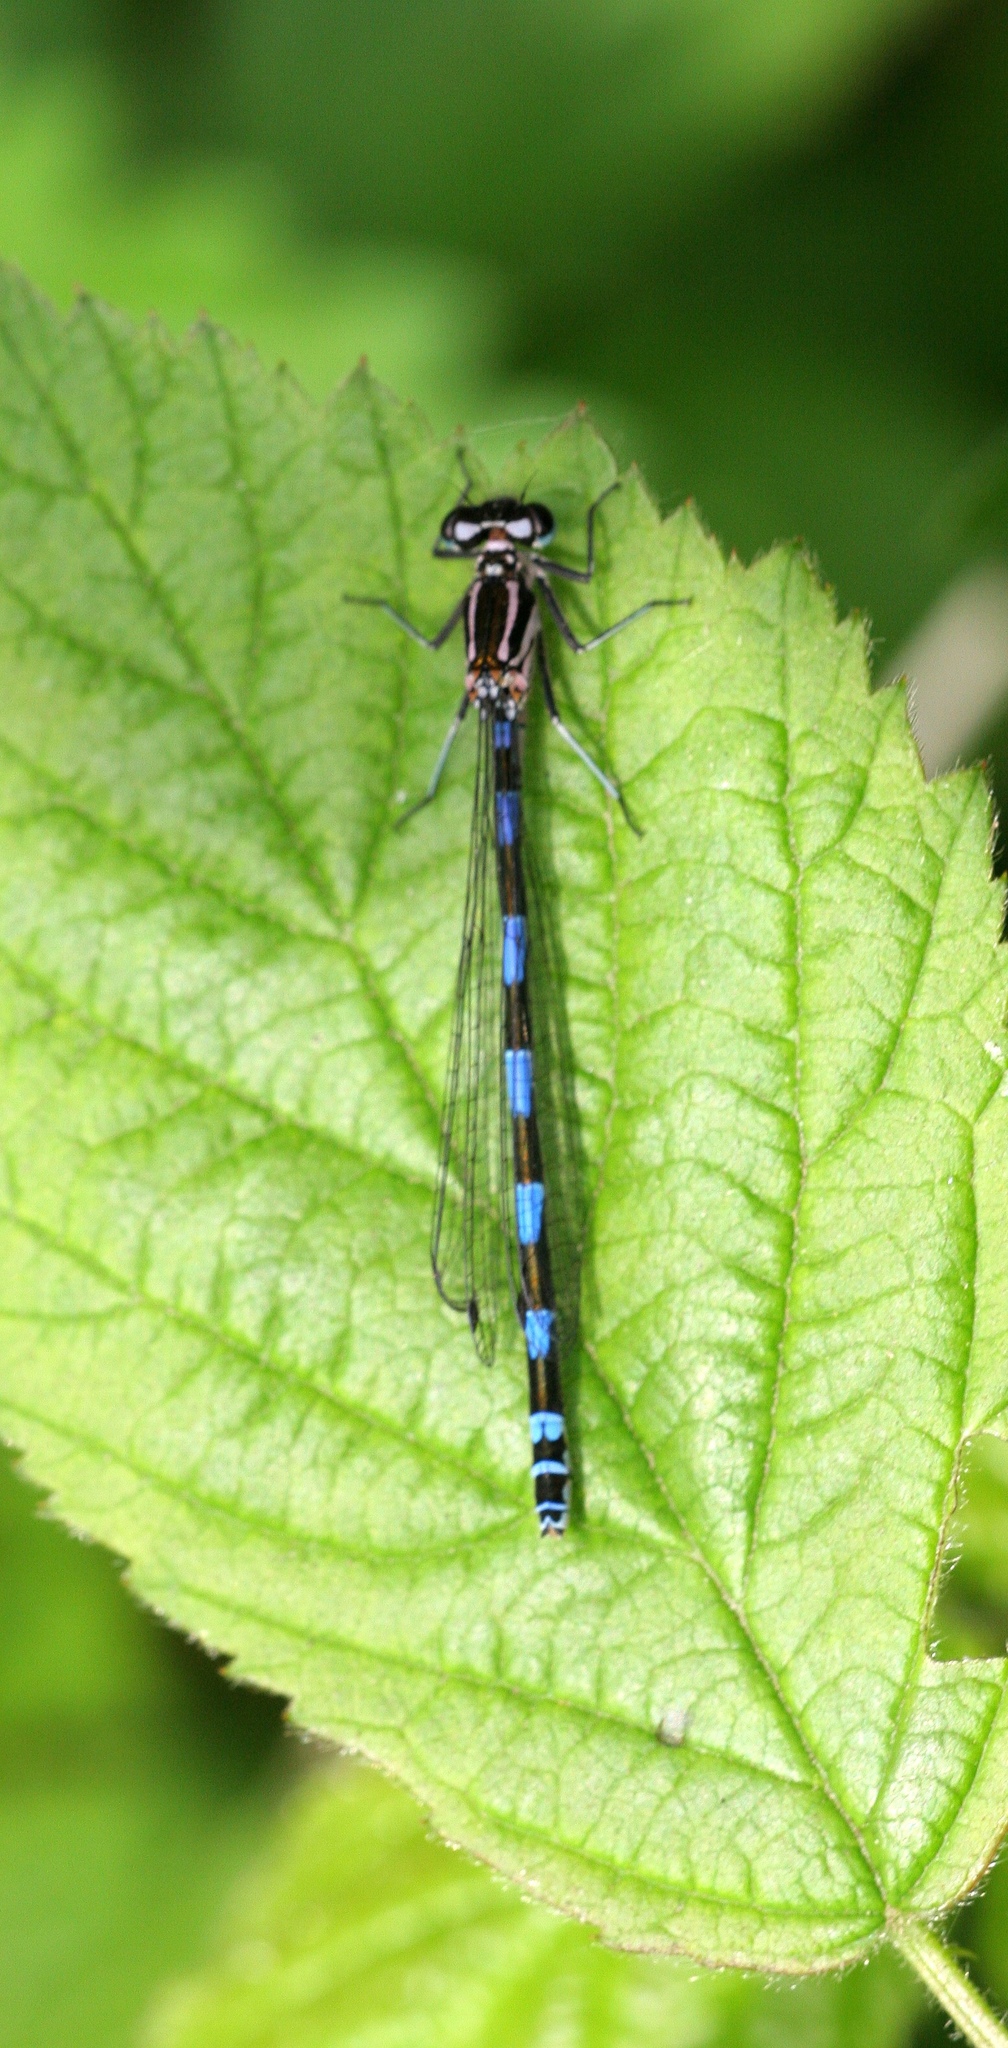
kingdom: Animalia
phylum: Arthropoda
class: Insecta
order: Odonata
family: Coenagrionidae
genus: Coenagrion
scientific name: Coenagrion pulchellum
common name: Variable bluet
